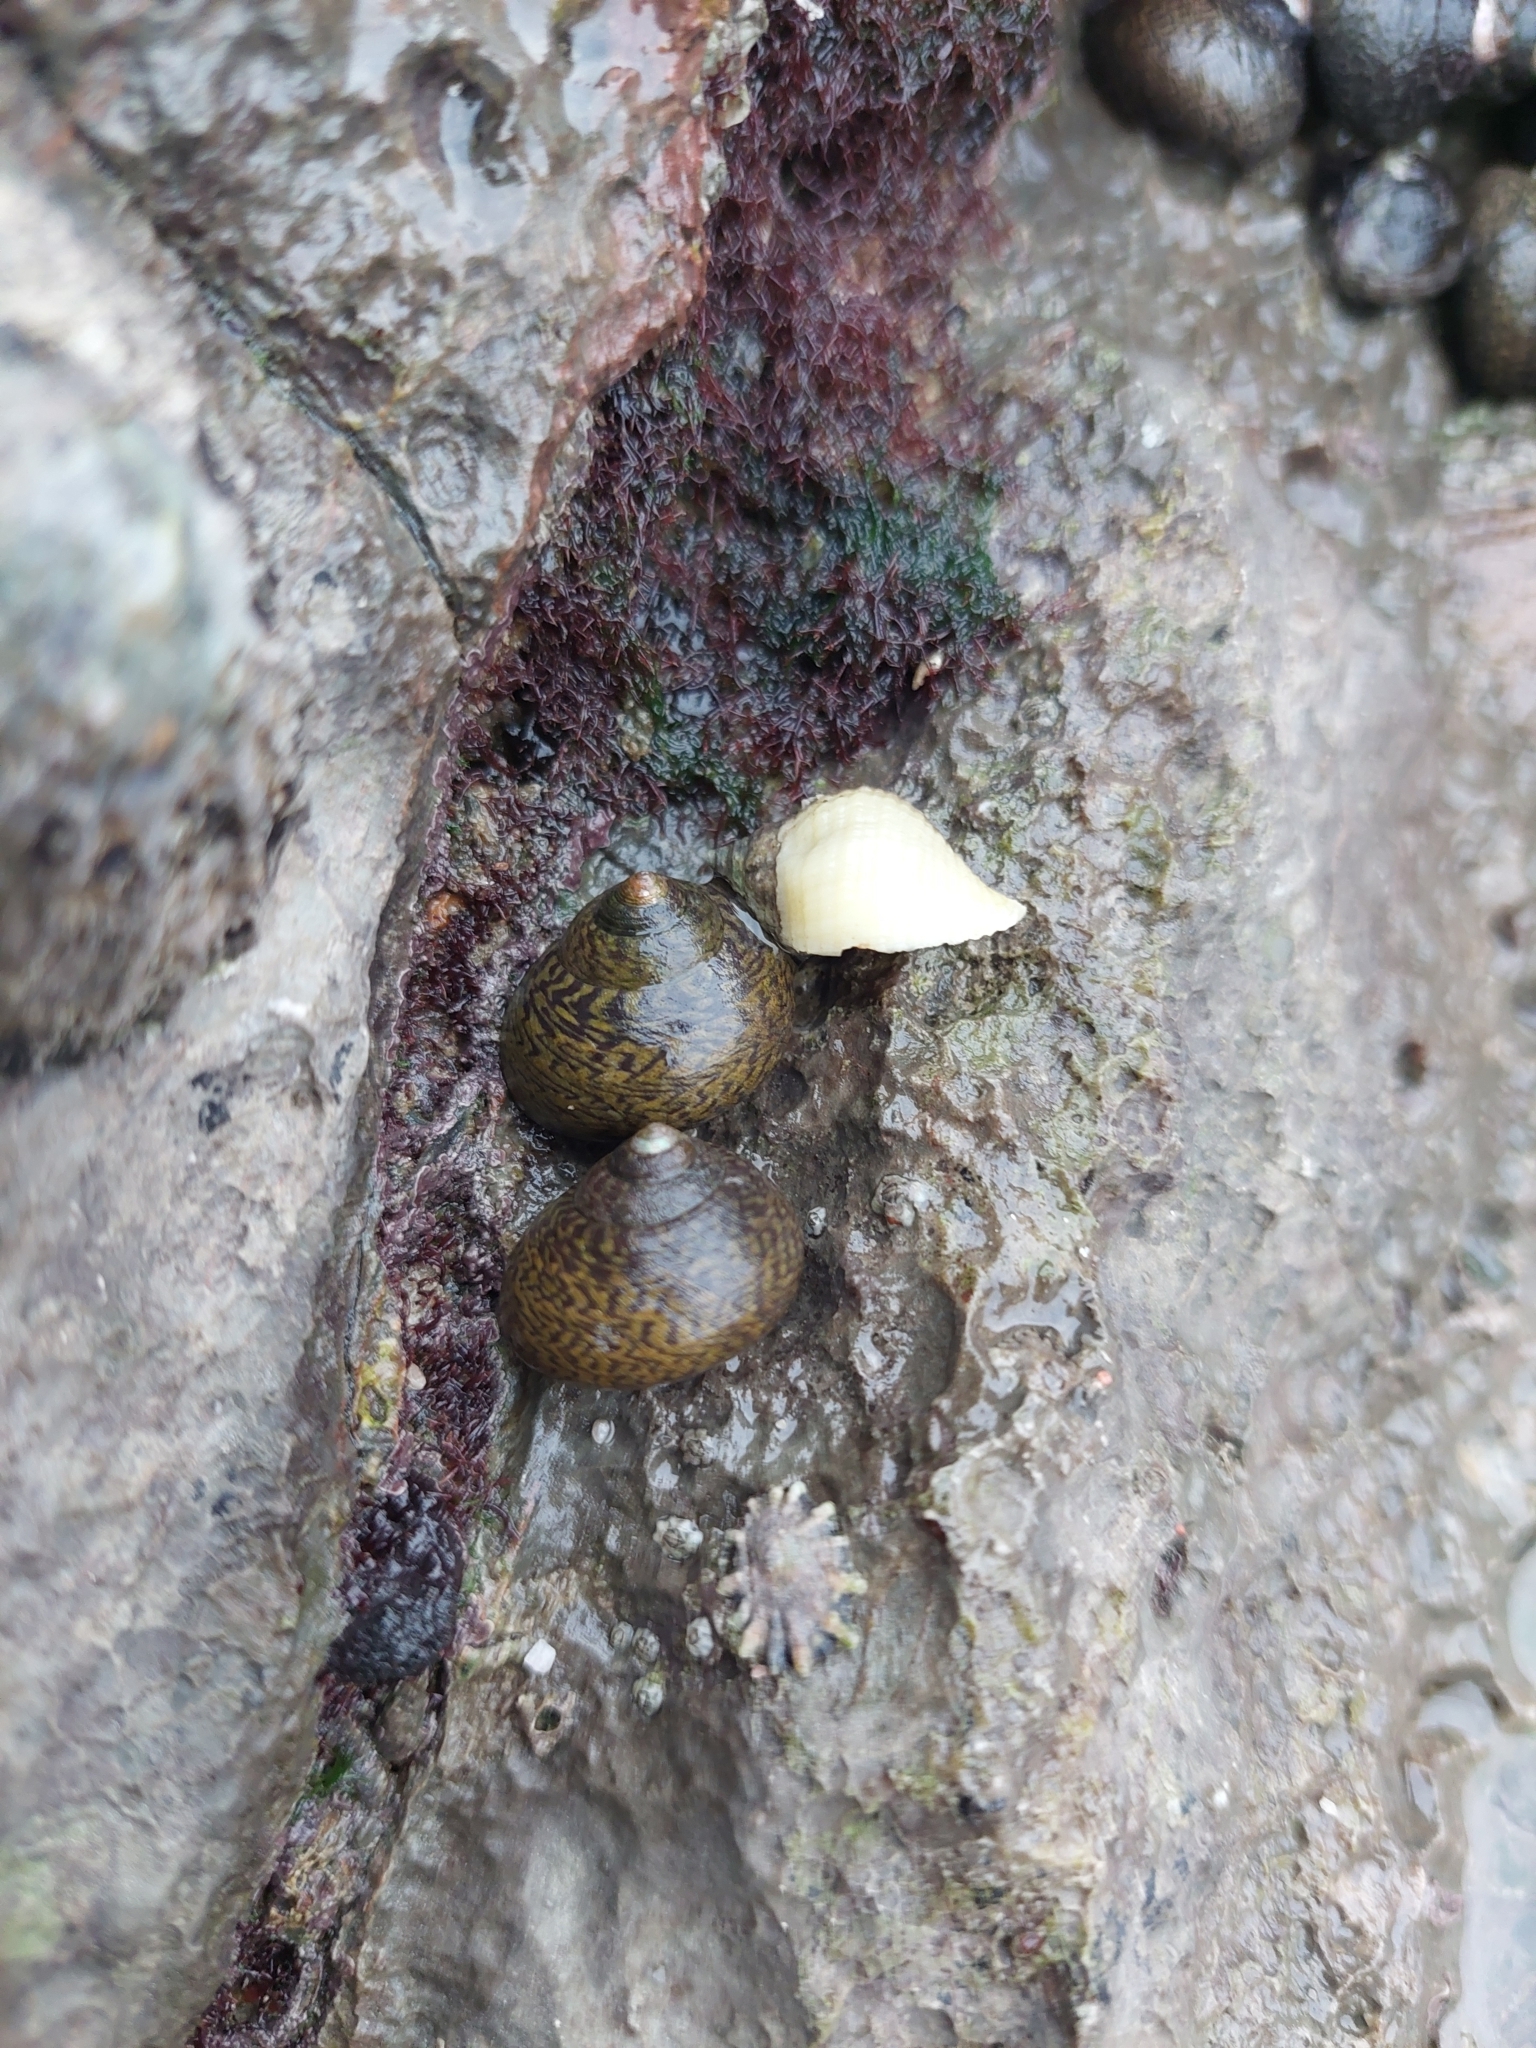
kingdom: Animalia
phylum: Mollusca
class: Gastropoda
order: Trochida
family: Trochidae
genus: Phorcus
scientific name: Phorcus lineatus
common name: Toothed top shell
